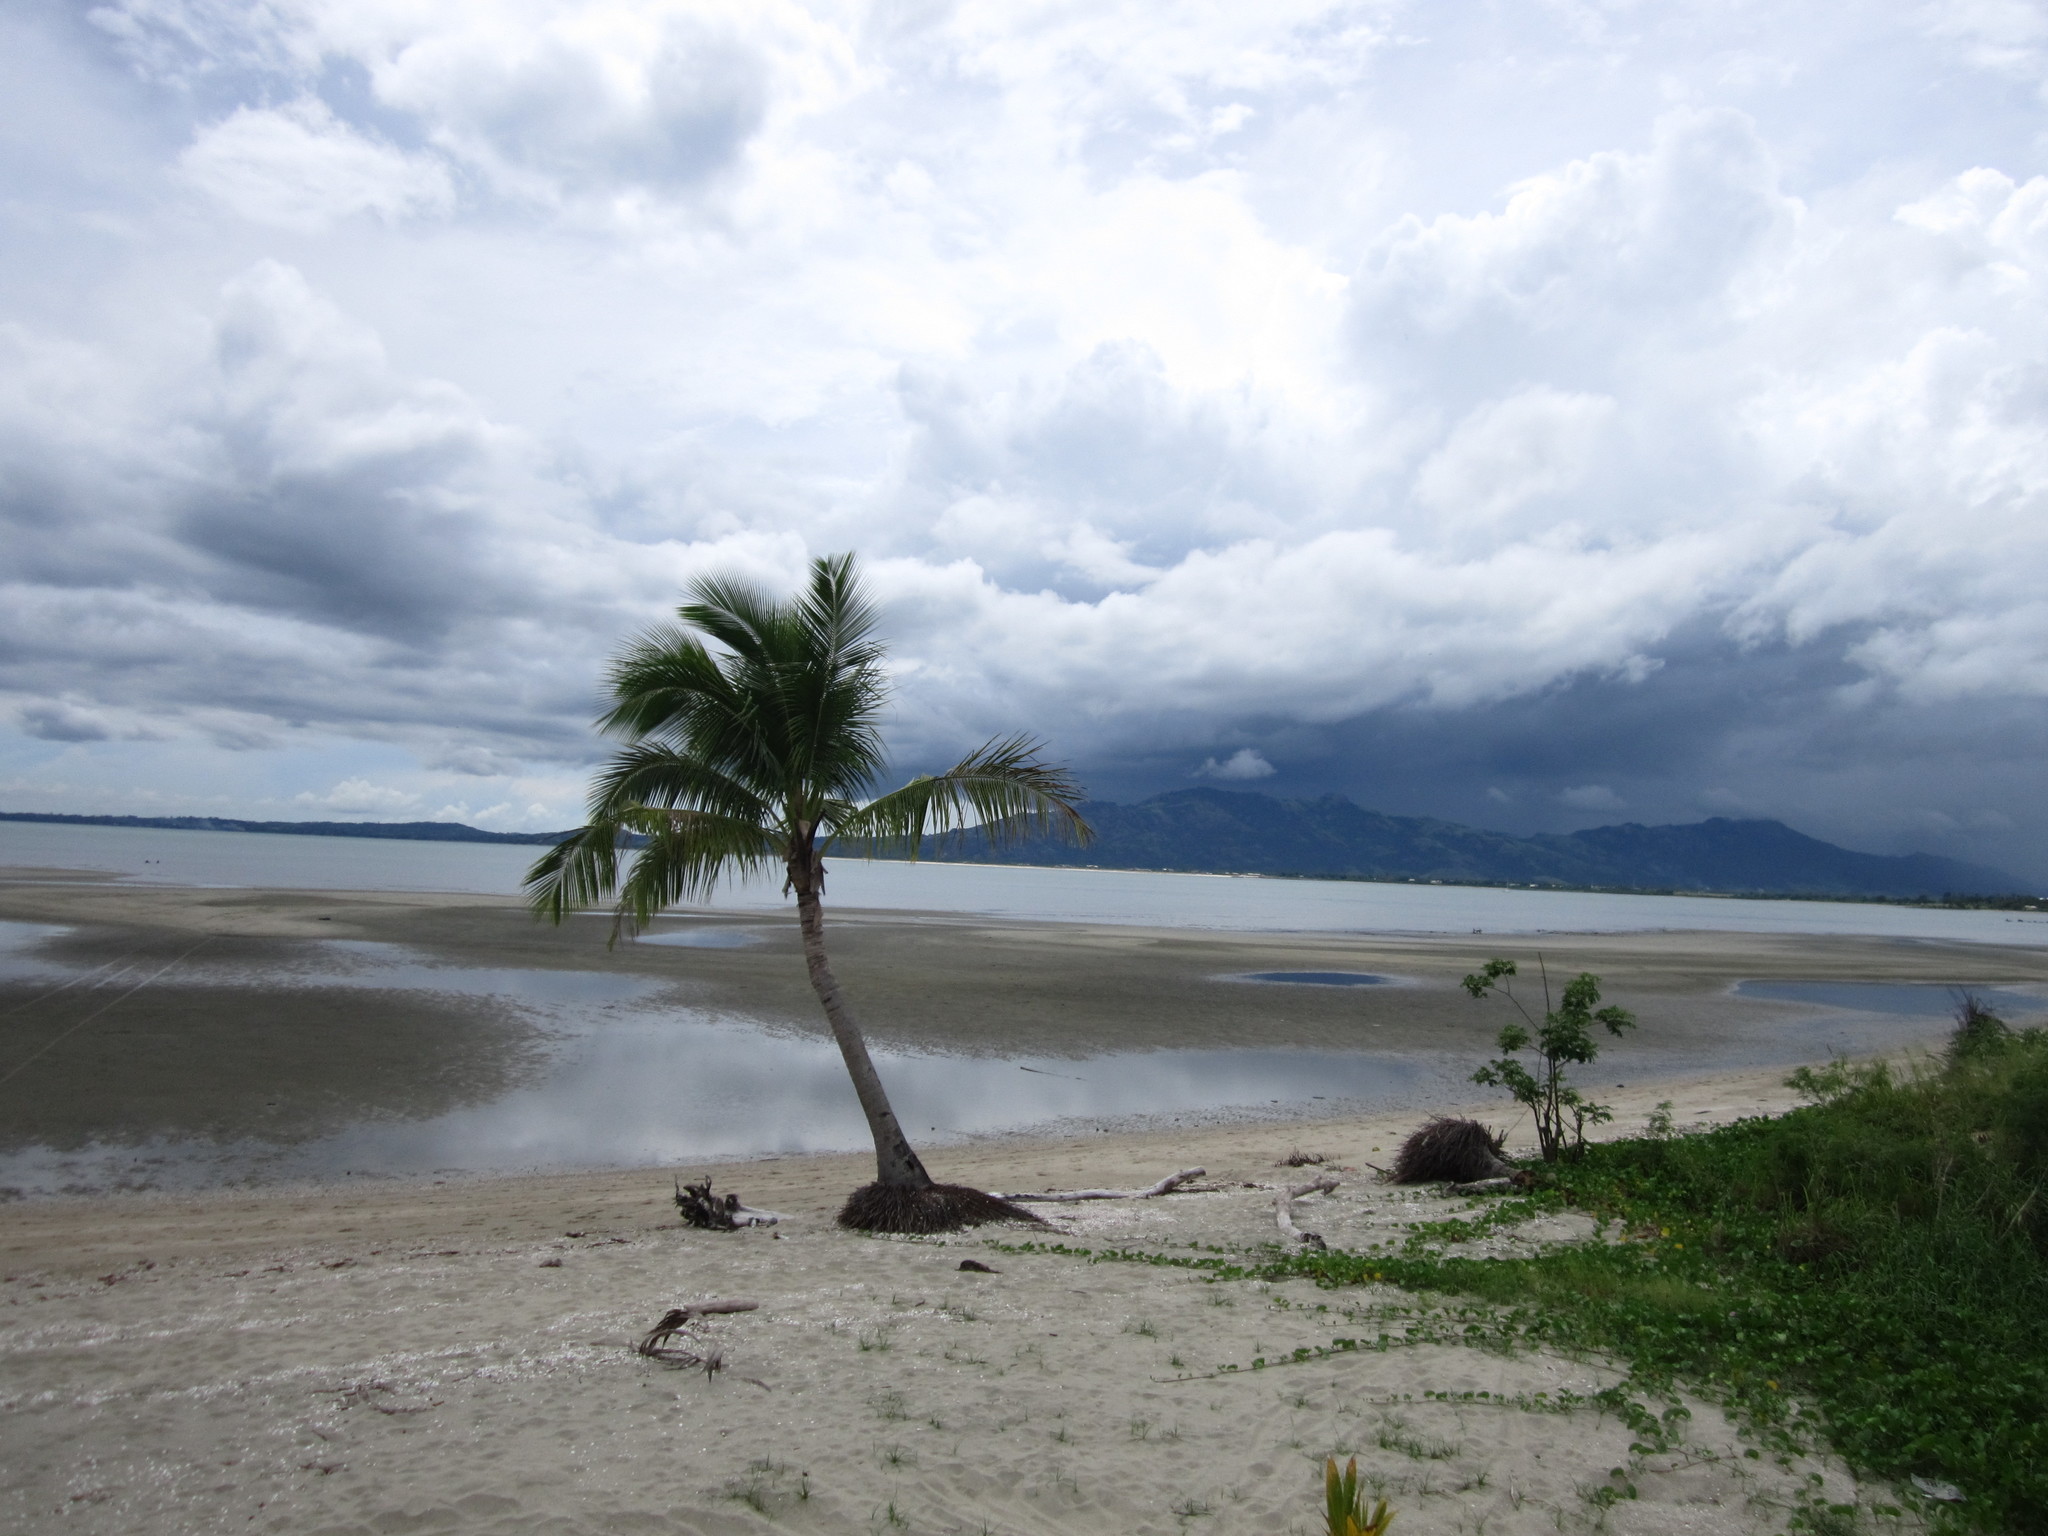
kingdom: Plantae
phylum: Tracheophyta
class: Liliopsida
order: Arecales
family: Arecaceae
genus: Cocos
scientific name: Cocos nucifera
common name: Coconut palm
